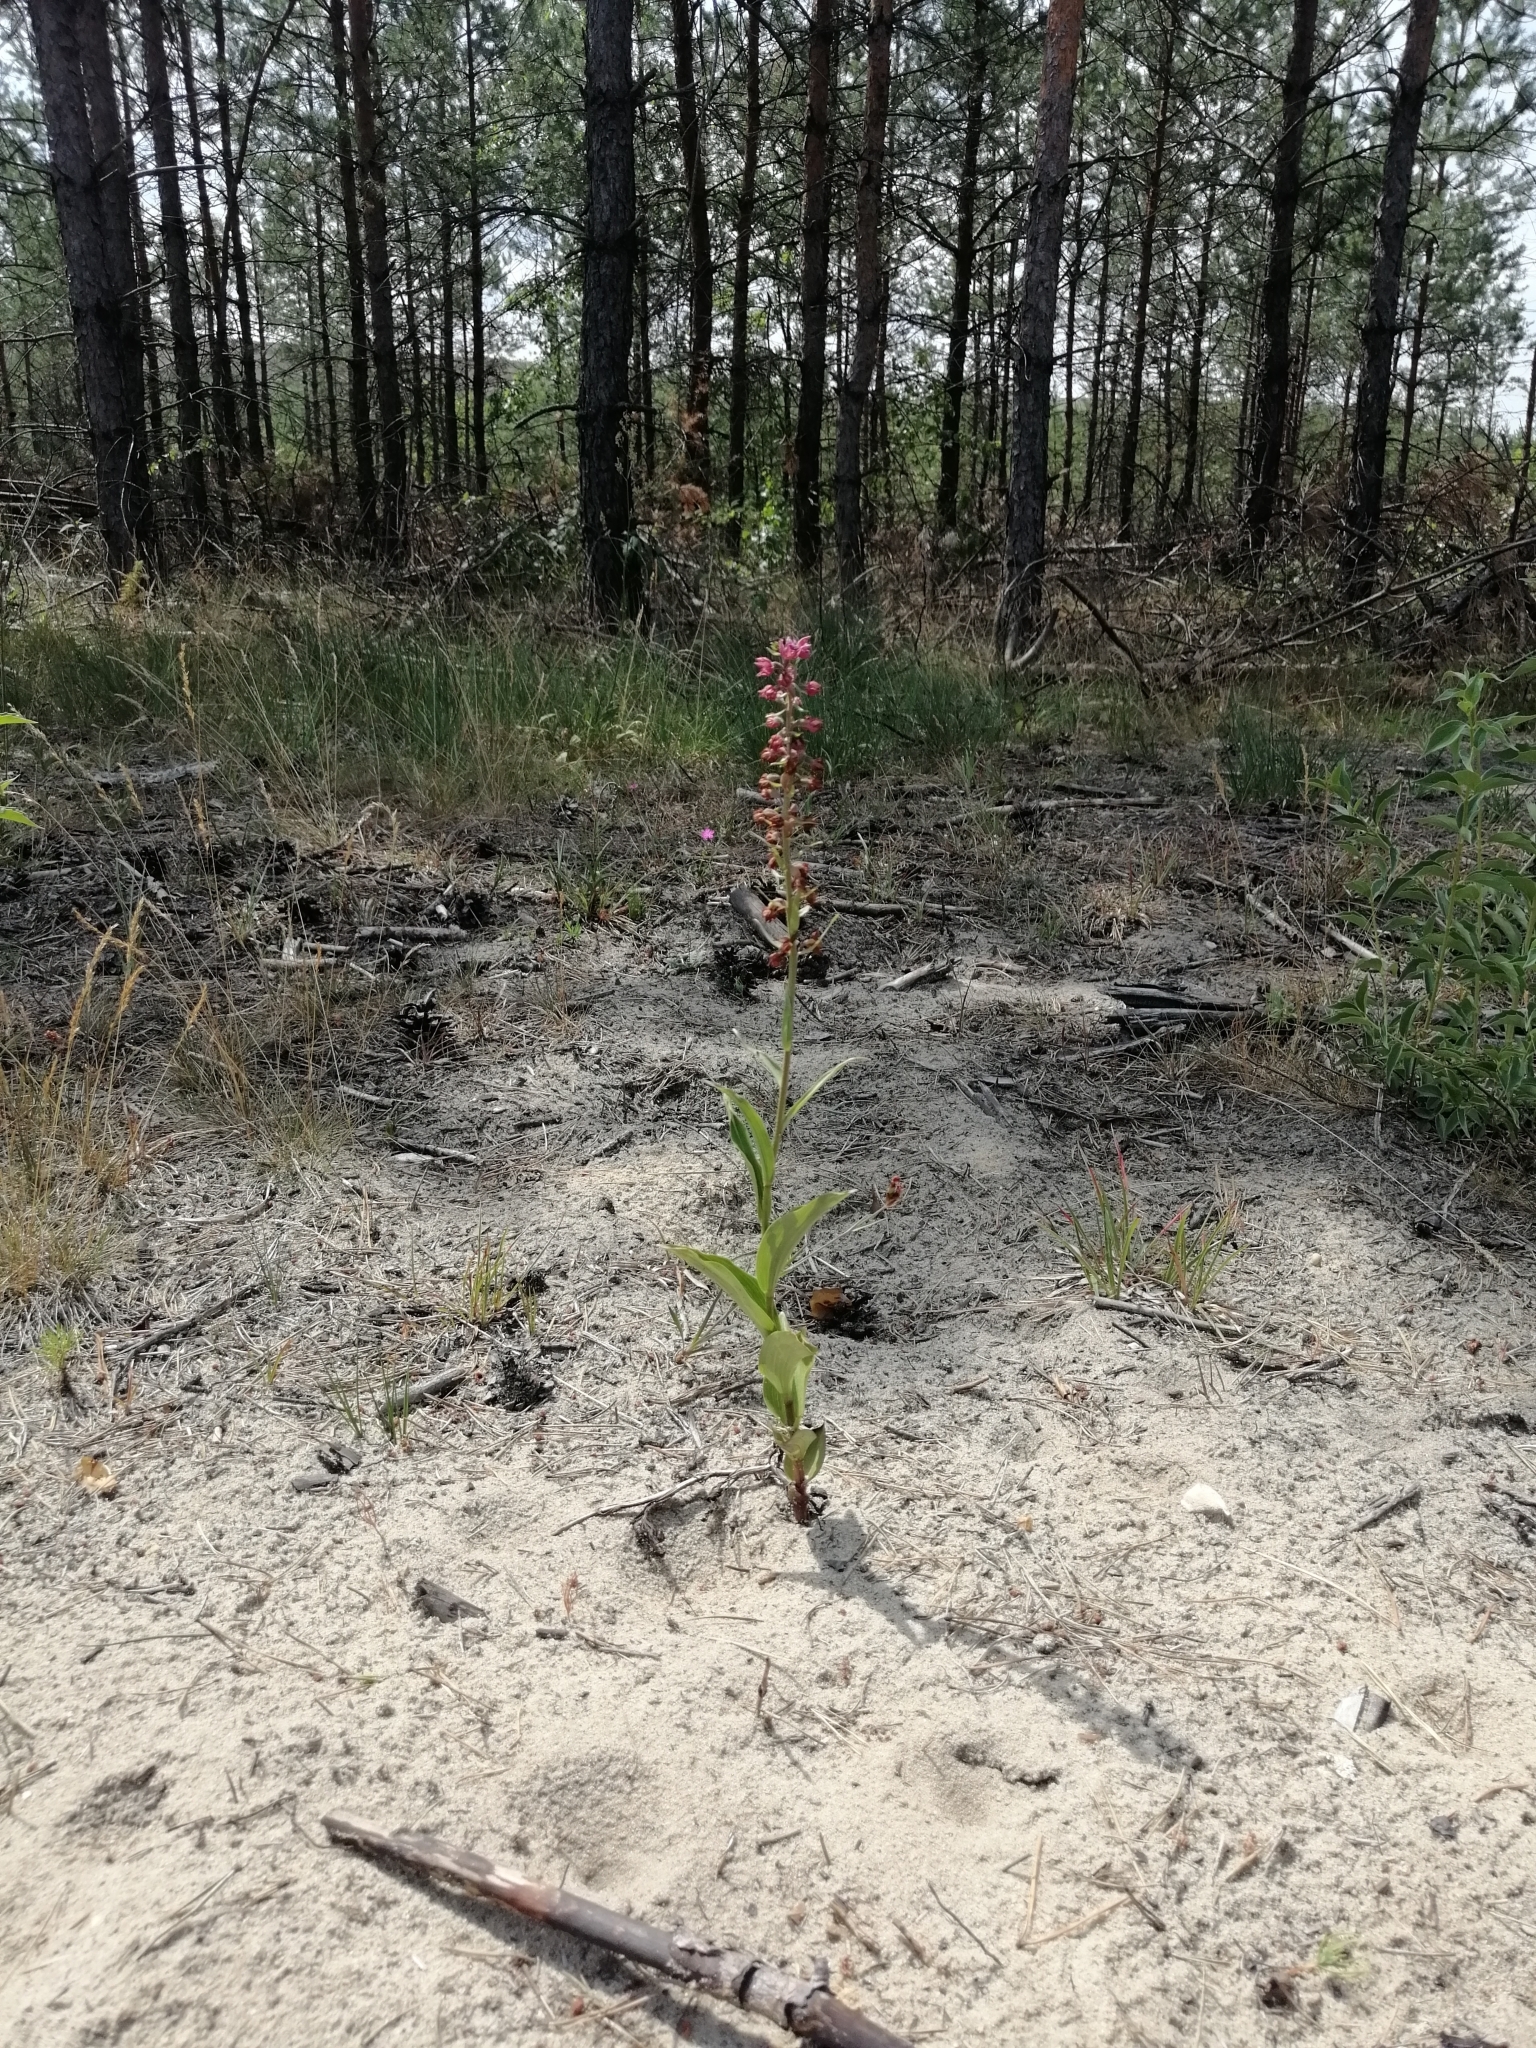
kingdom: Plantae
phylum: Tracheophyta
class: Liliopsida
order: Asparagales
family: Orchidaceae
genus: Epipactis
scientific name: Epipactis atrorubens
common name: Dark-red helleborine
